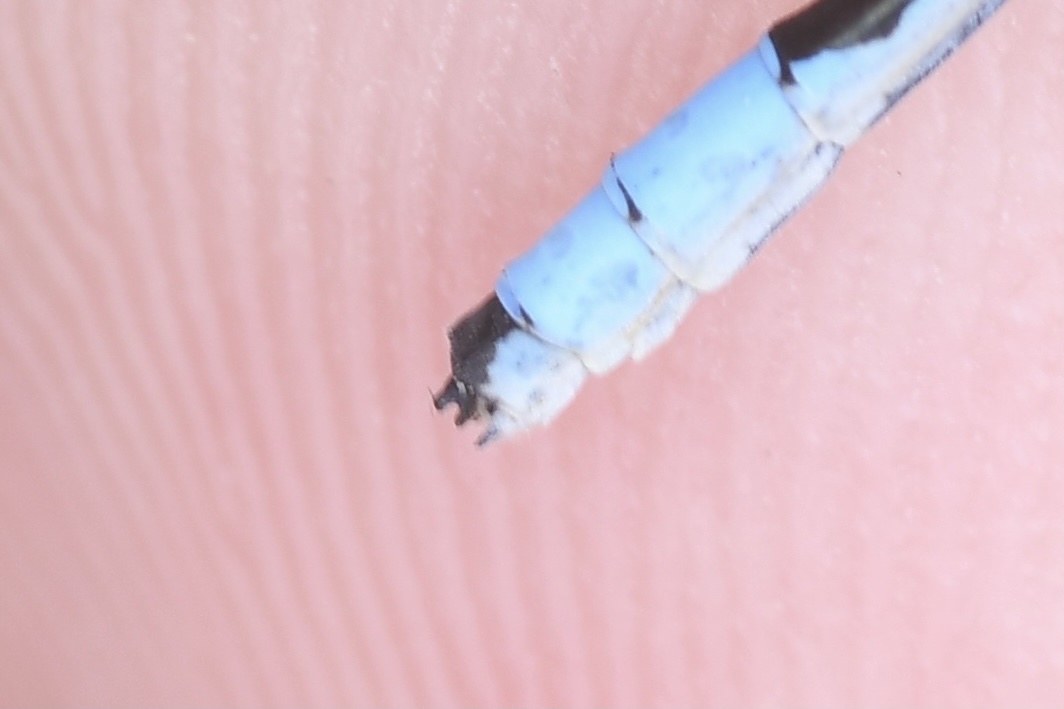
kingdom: Animalia
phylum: Arthropoda
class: Insecta
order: Odonata
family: Coenagrionidae
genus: Enallagma
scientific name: Enallagma ebrium
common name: Marsh bluet
